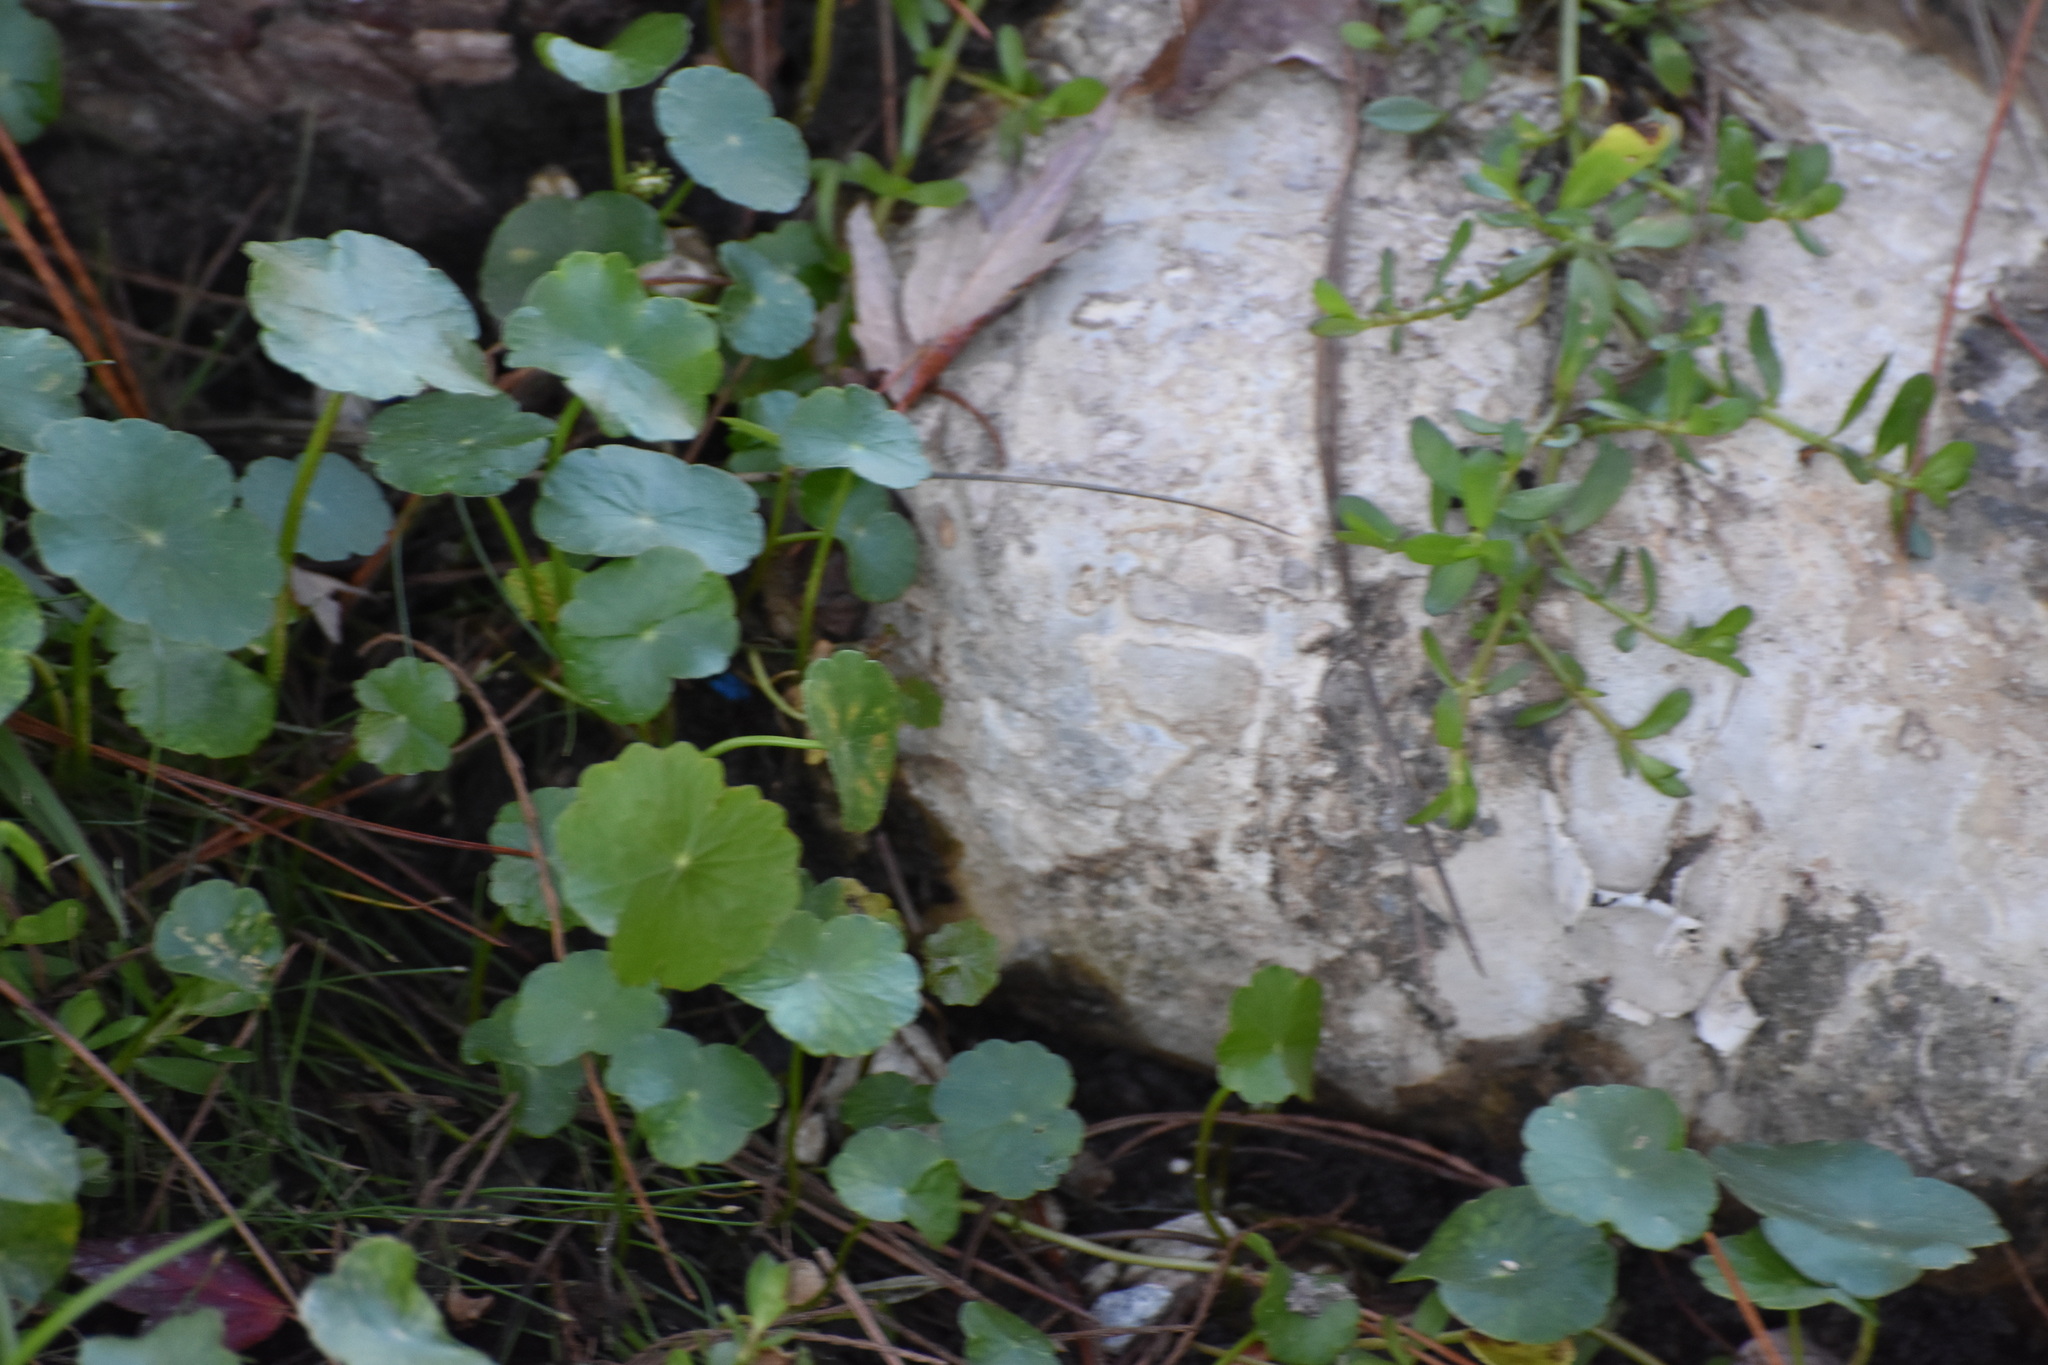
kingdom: Plantae
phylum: Tracheophyta
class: Magnoliopsida
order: Apiales
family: Araliaceae
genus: Hydrocotyle
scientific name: Hydrocotyle
